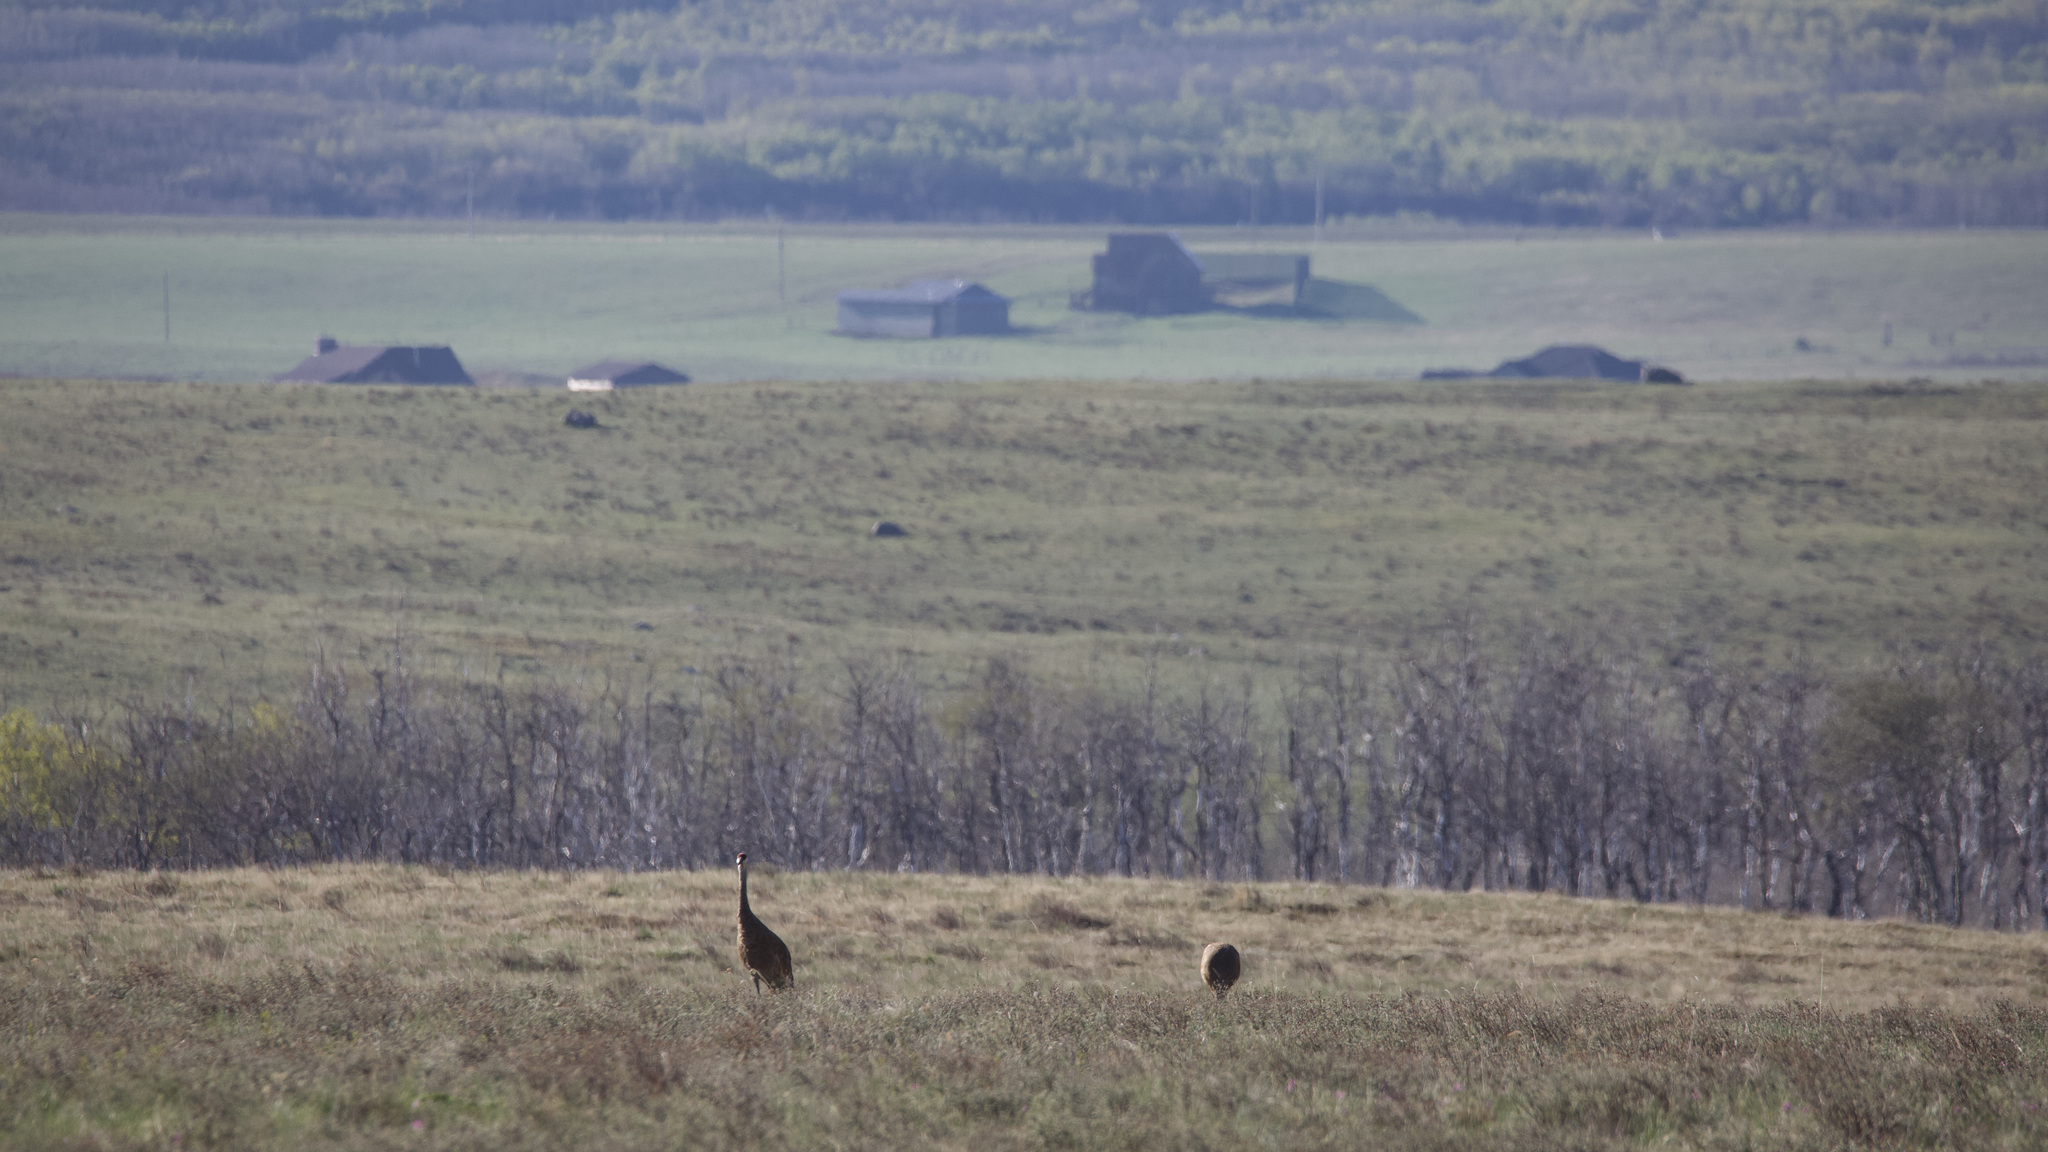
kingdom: Animalia
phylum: Chordata
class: Aves
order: Gruiformes
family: Gruidae
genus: Grus
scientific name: Grus canadensis
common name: Sandhill crane
